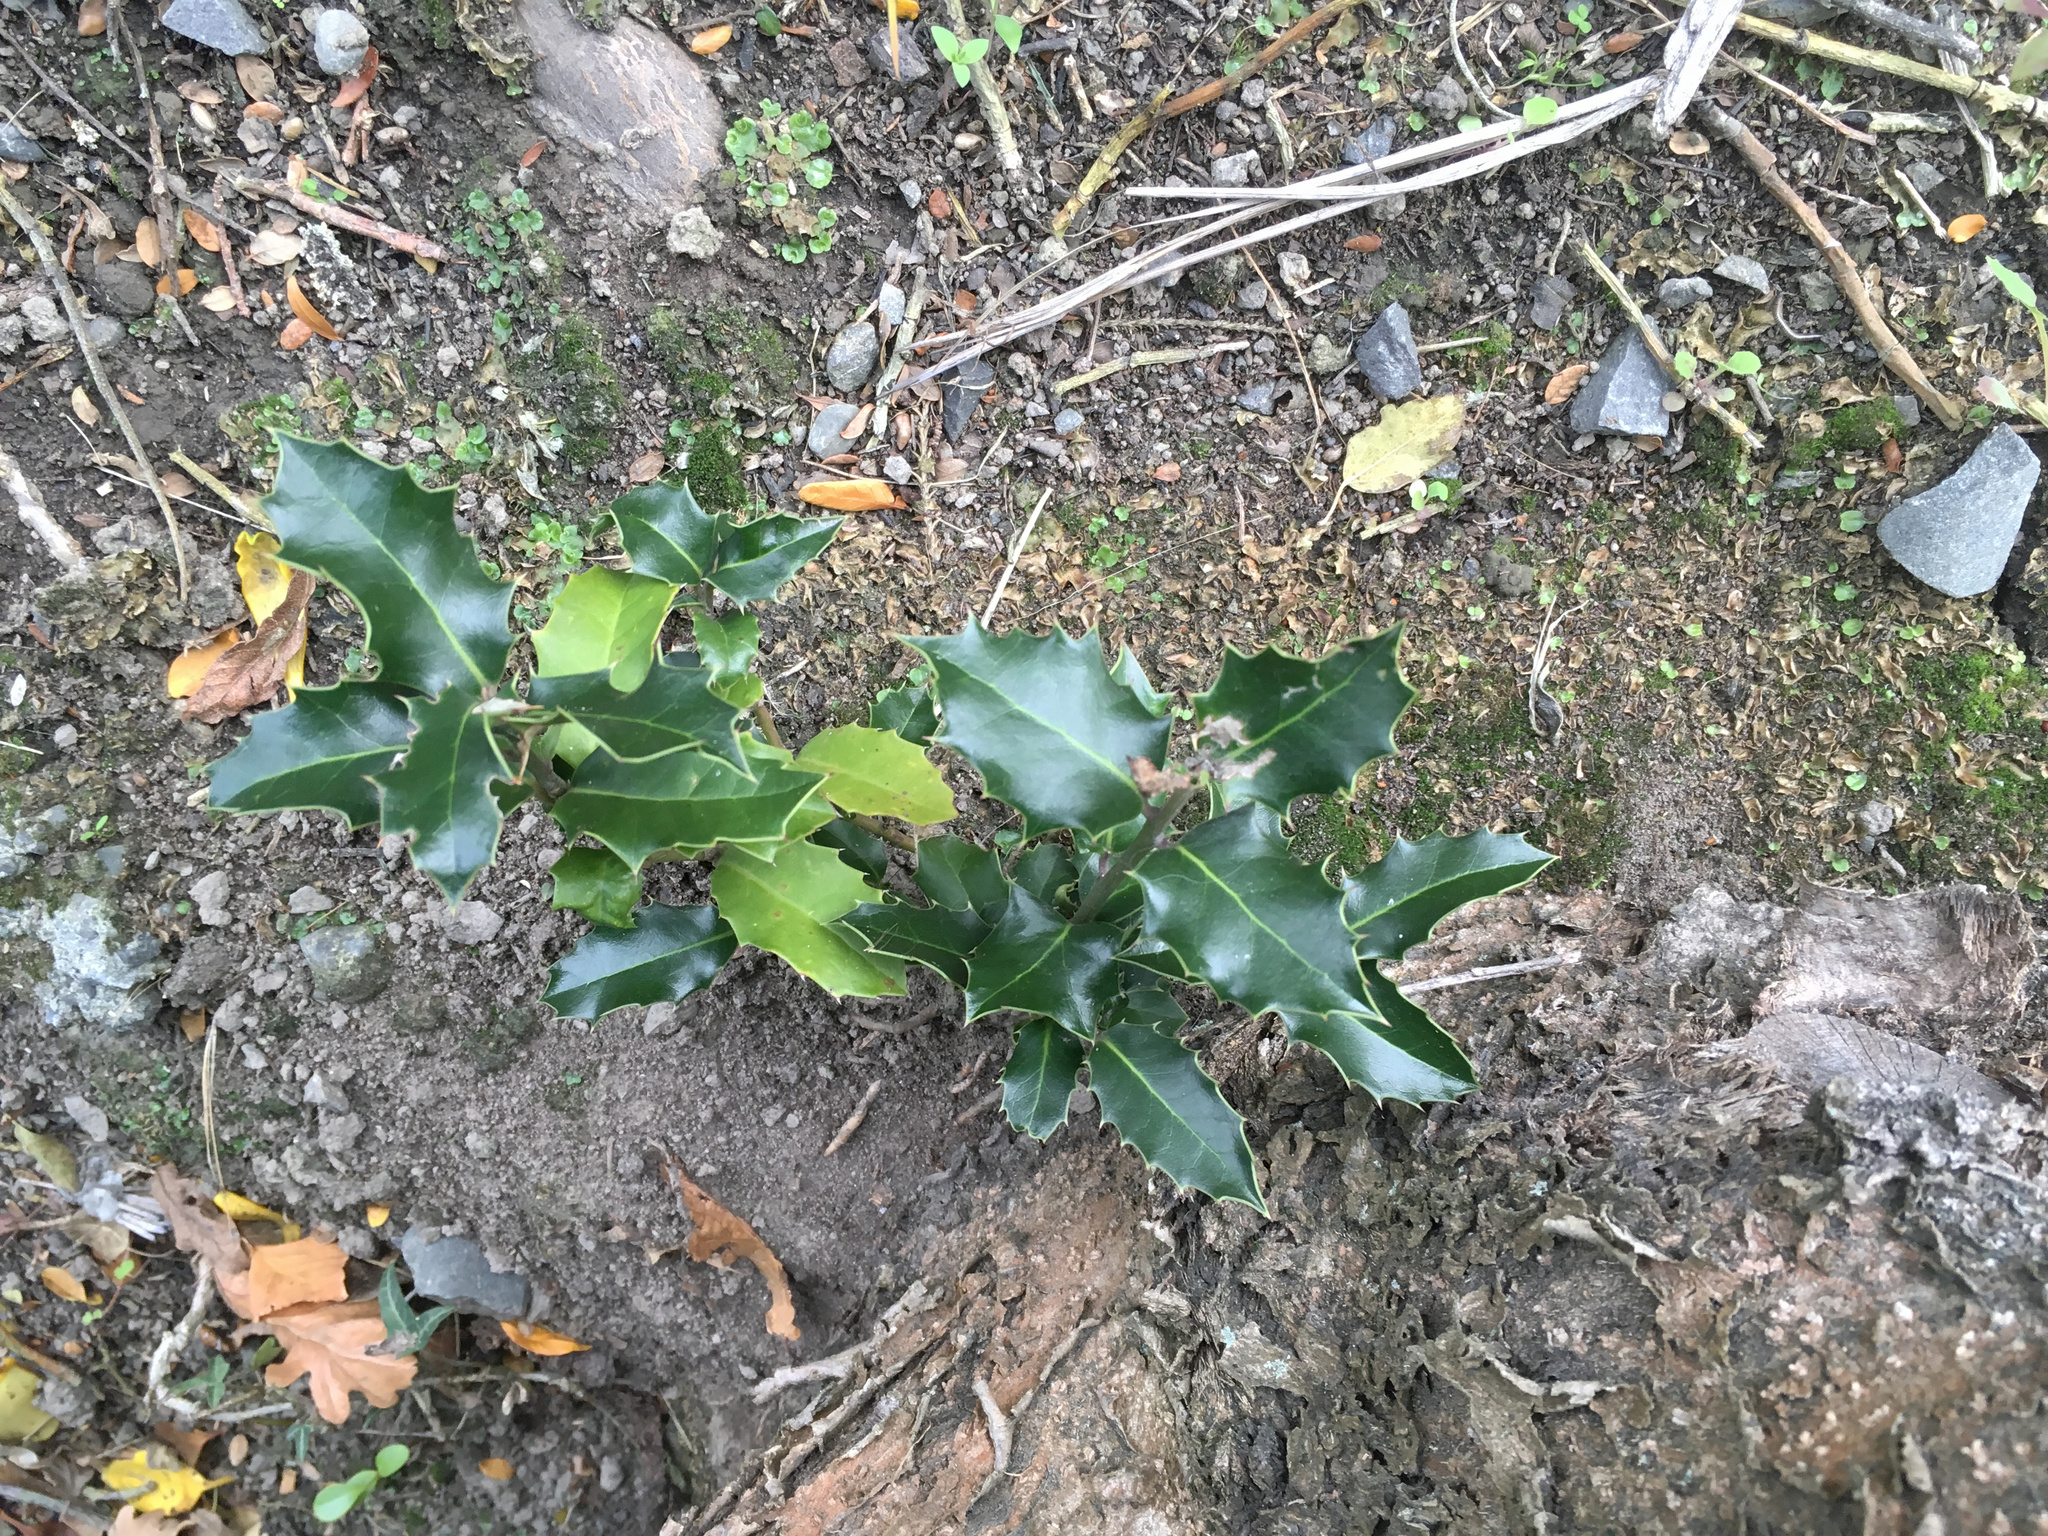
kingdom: Plantae
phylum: Tracheophyta
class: Magnoliopsida
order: Aquifoliales
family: Aquifoliaceae
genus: Ilex
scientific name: Ilex aquifolium
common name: English holly
